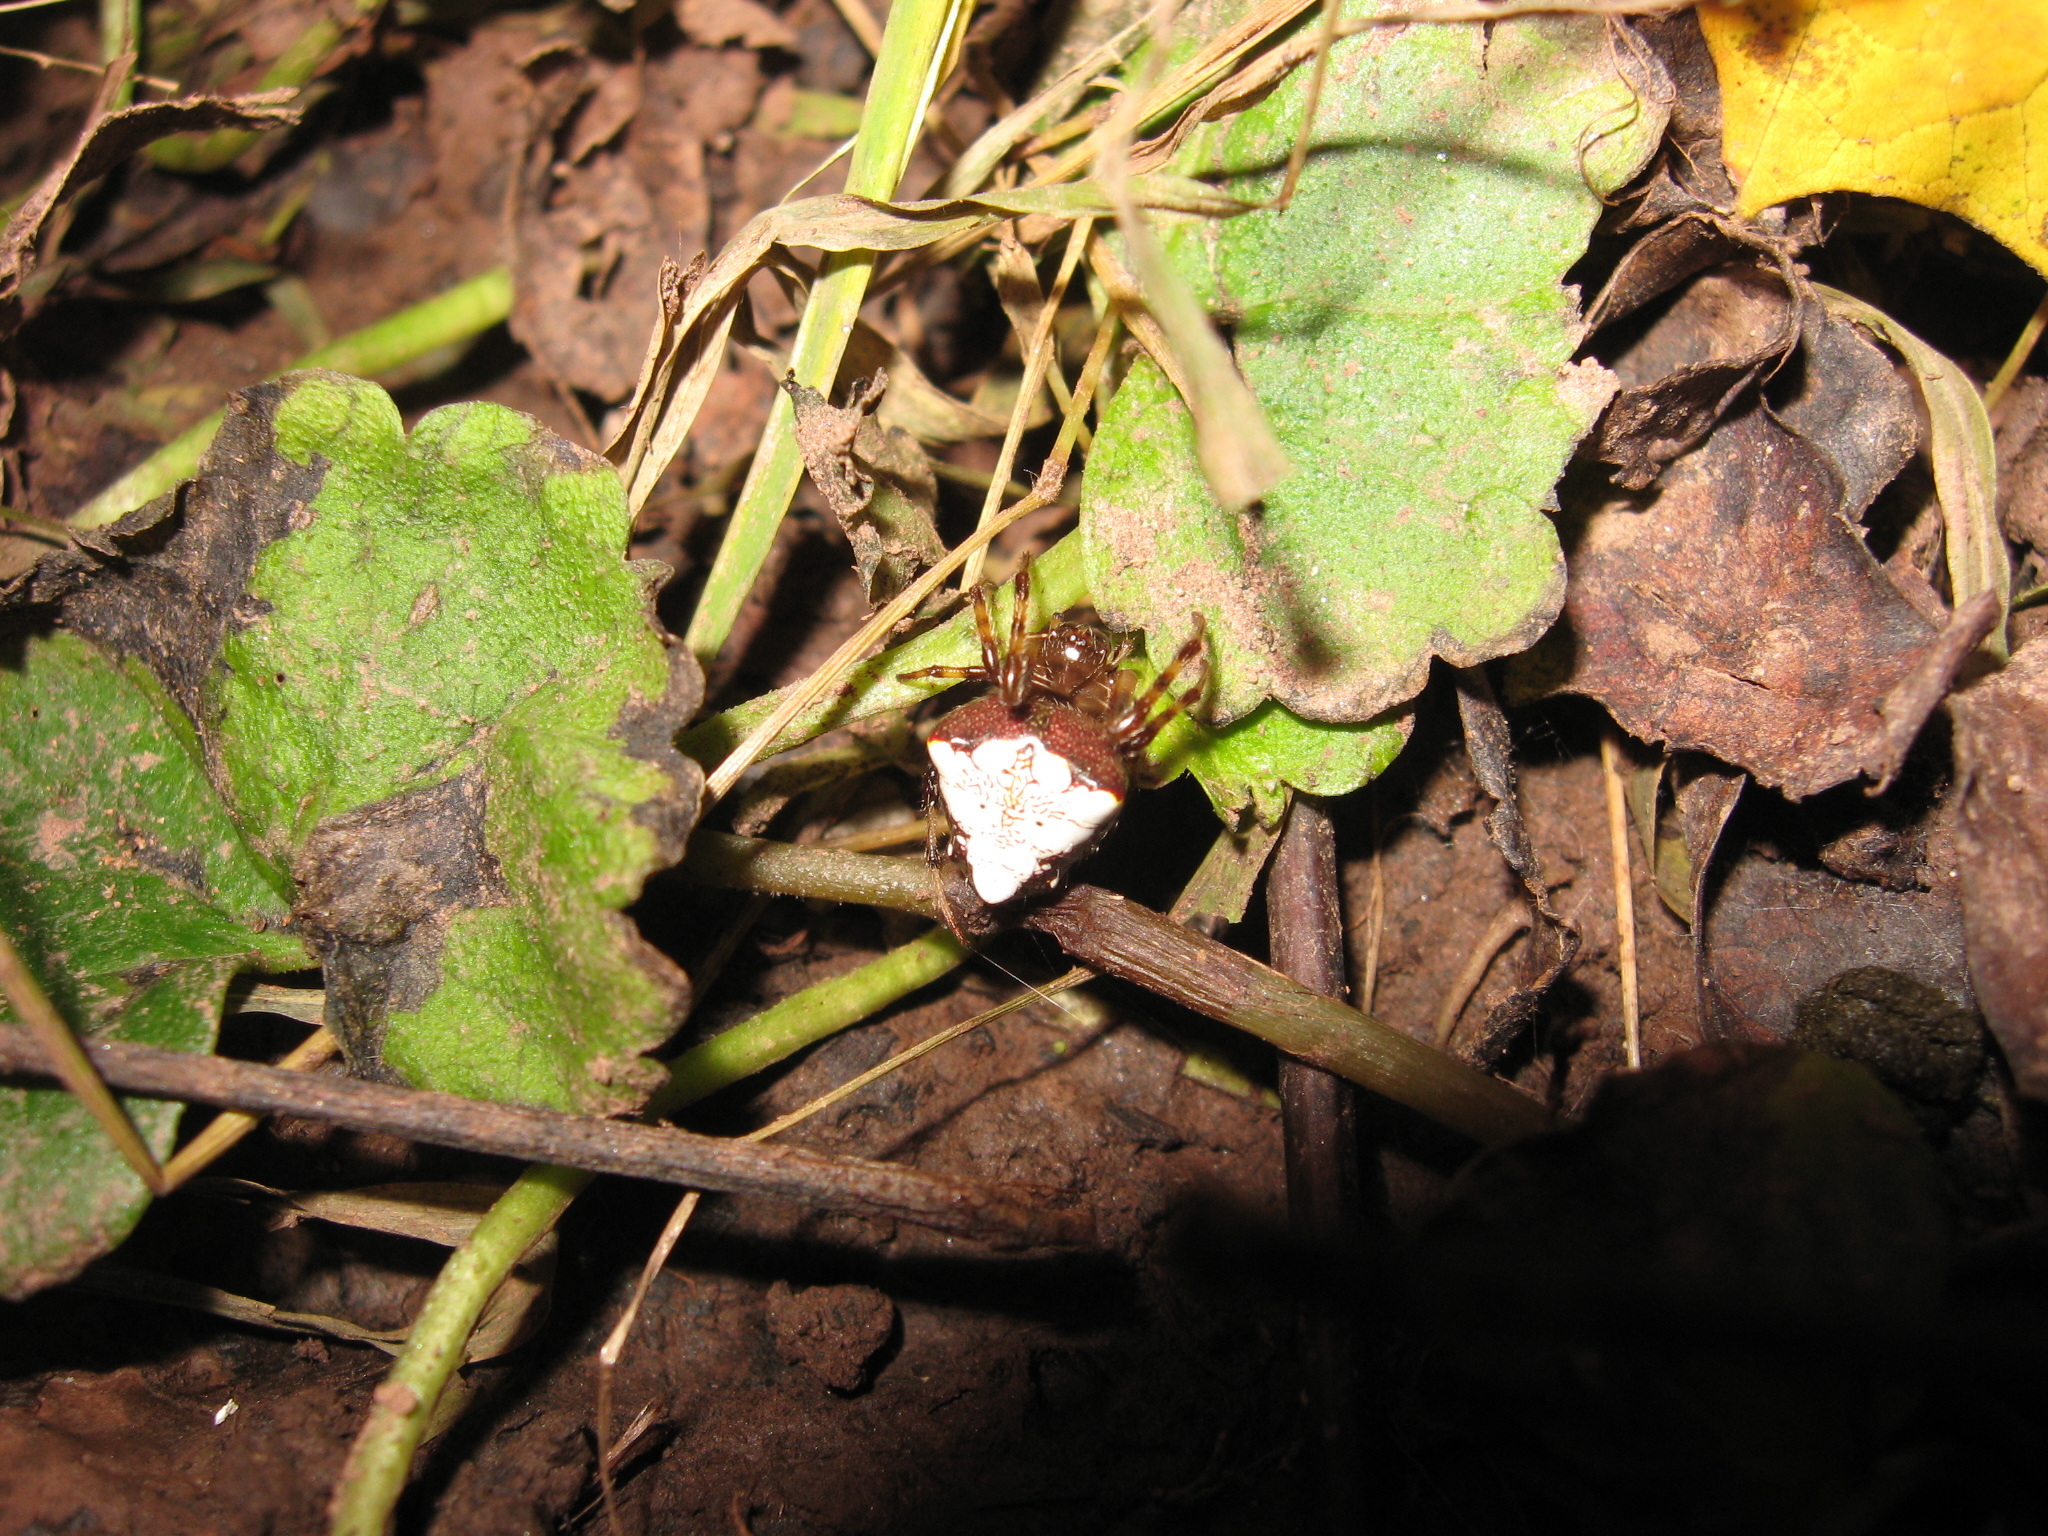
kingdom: Animalia
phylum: Arthropoda
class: Arachnida
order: Araneae
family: Araneidae
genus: Verrucosa
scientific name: Verrucosa arenata
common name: Orb weavers
